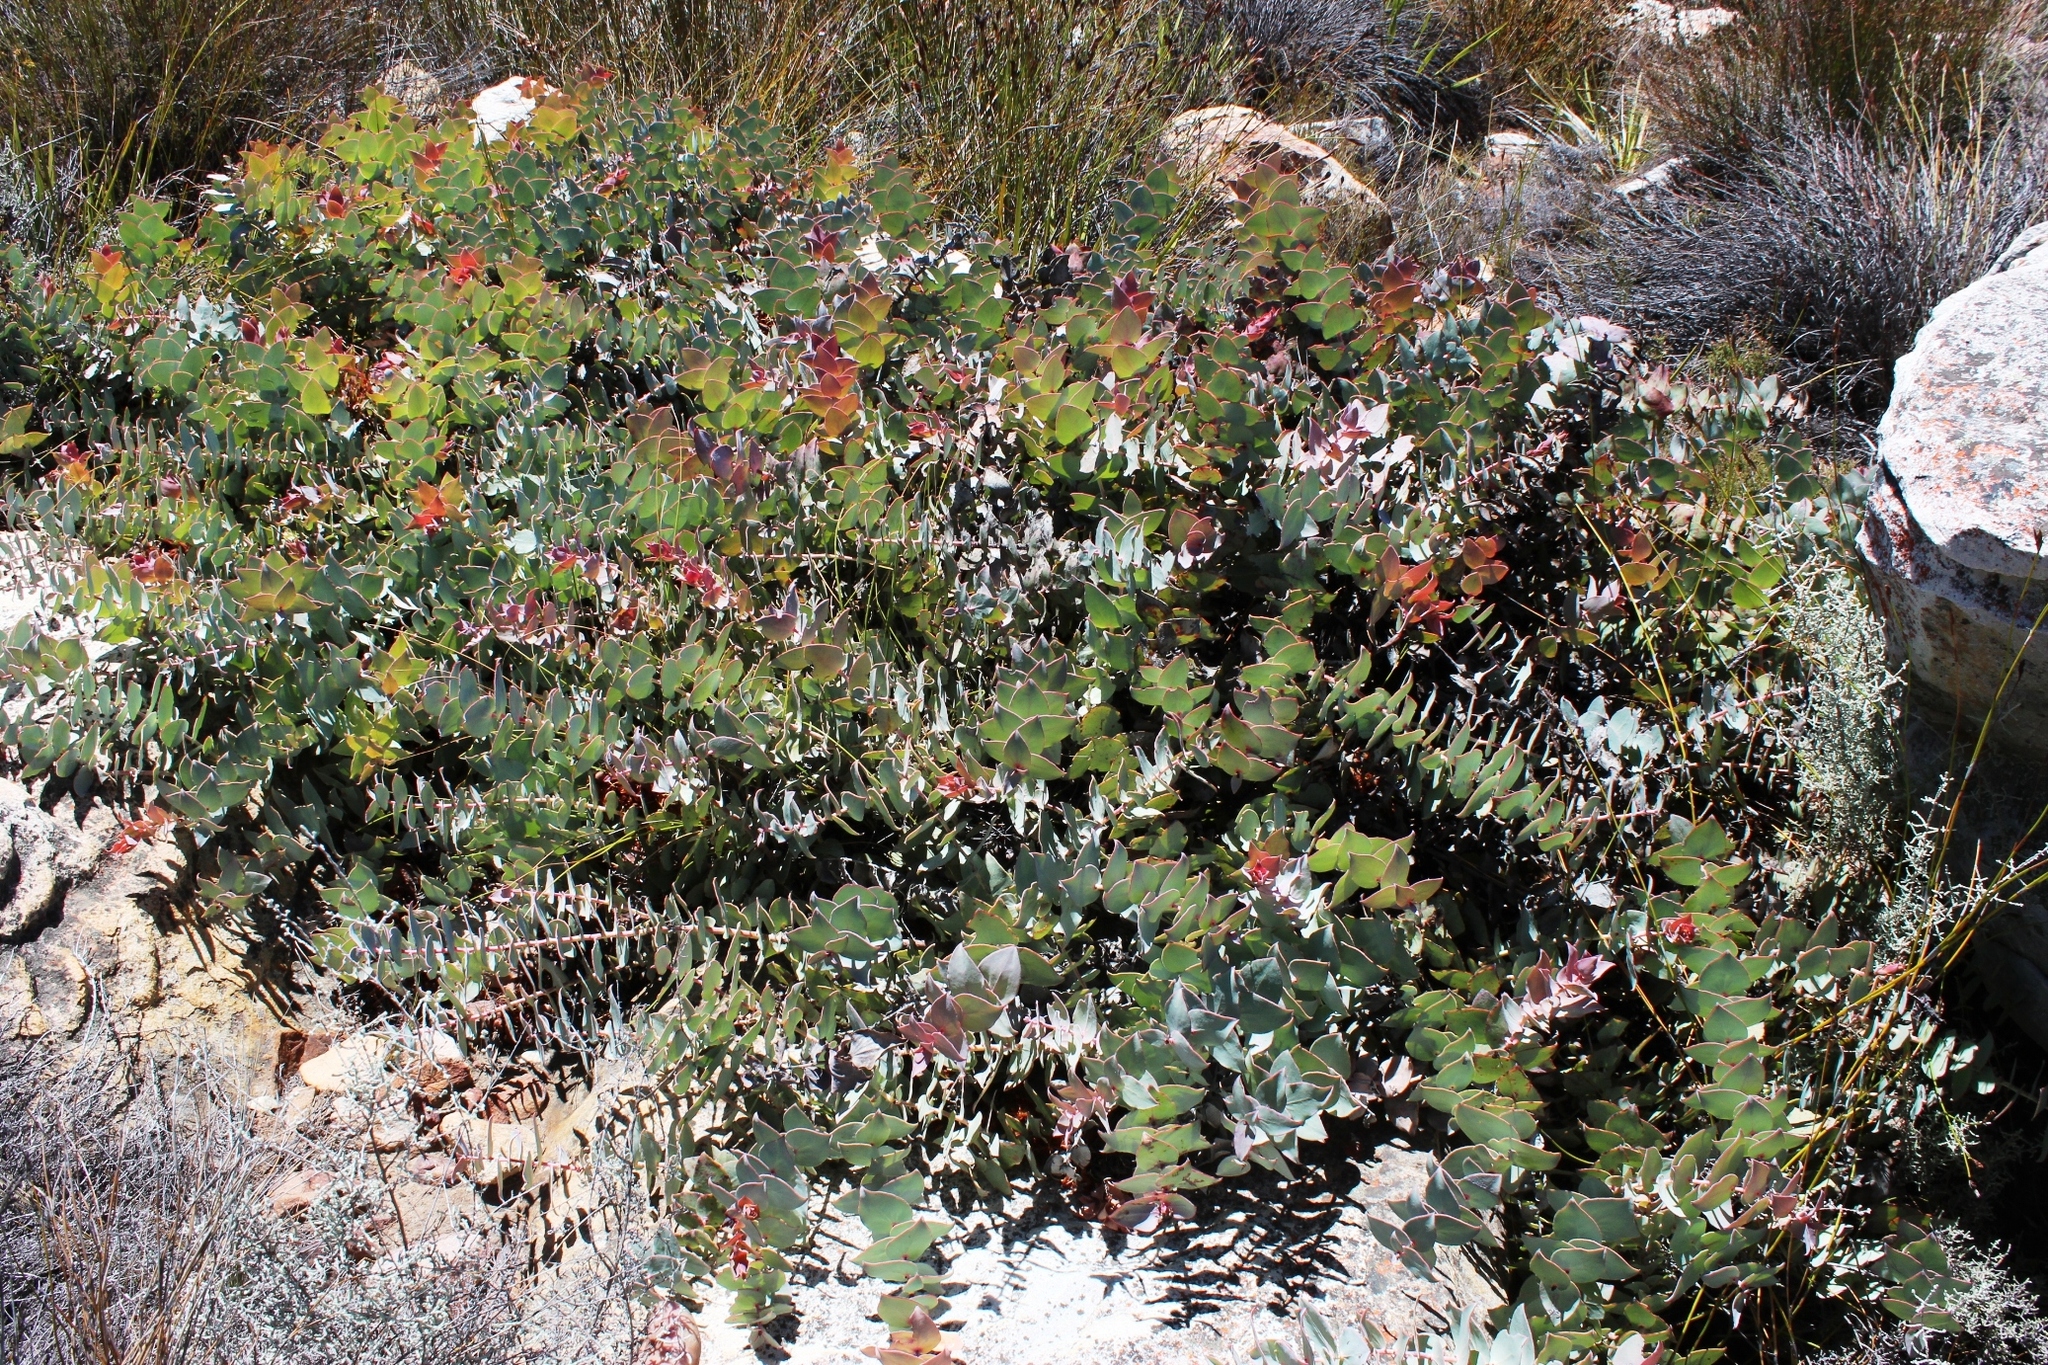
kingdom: Plantae
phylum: Tracheophyta
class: Magnoliopsida
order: Proteales
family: Proteaceae
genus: Protea
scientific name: Protea amplexicaulis
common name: Clasping-leaf sugarbush
